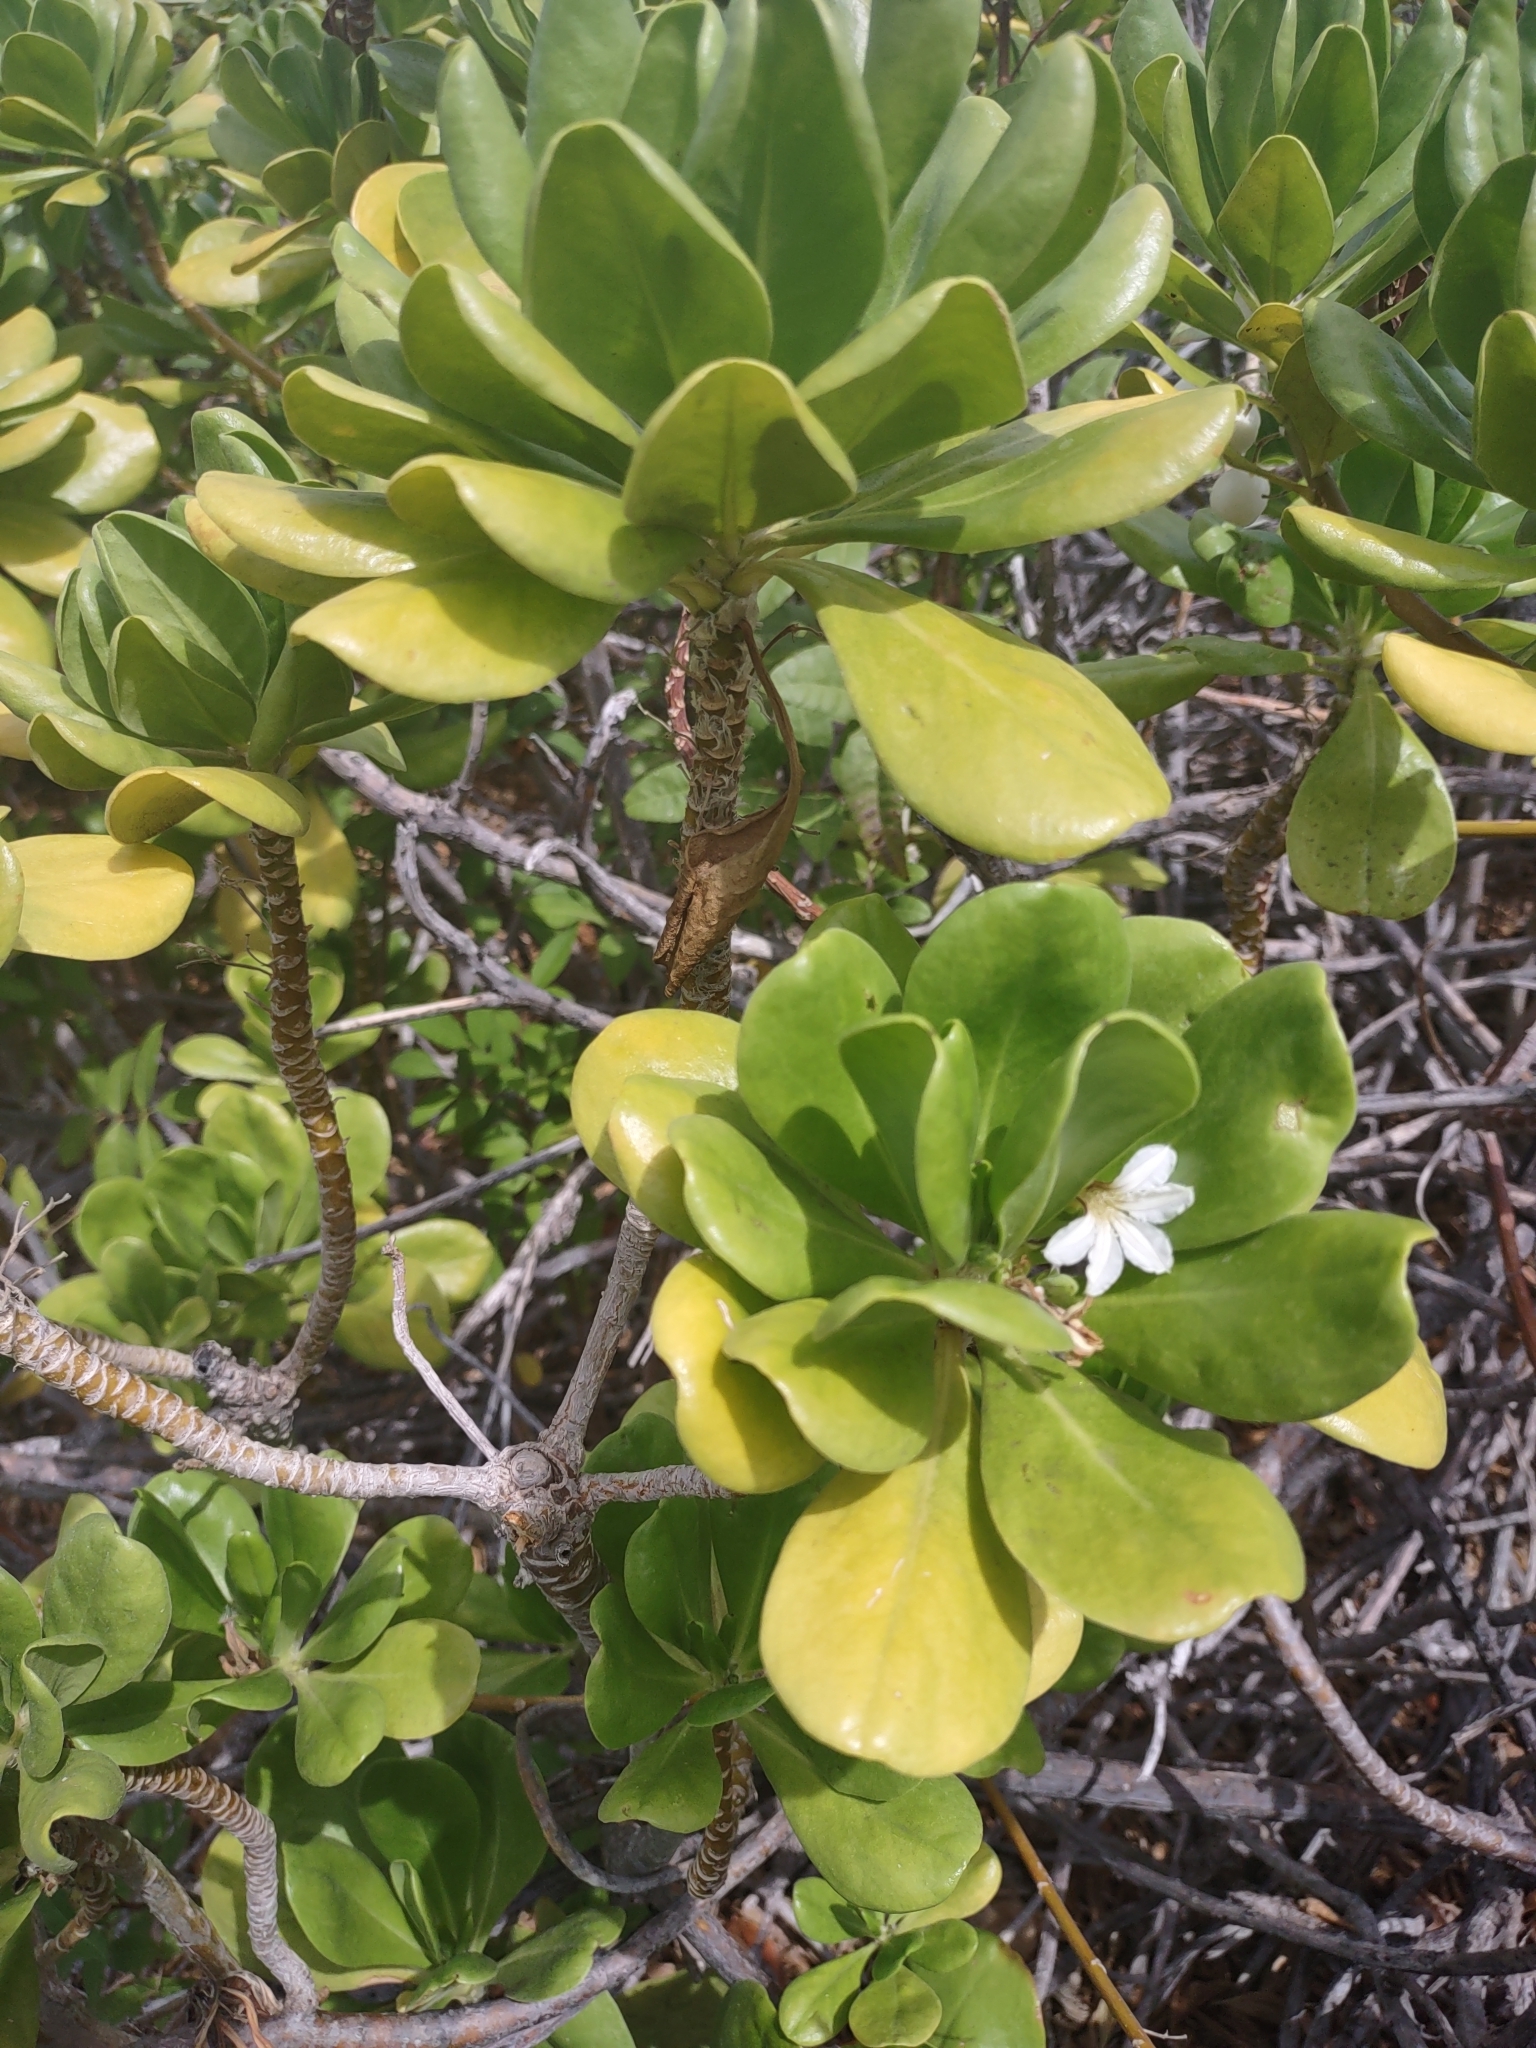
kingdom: Plantae
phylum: Tracheophyta
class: Magnoliopsida
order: Asterales
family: Goodeniaceae
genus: Scaevola
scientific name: Scaevola taccada
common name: Sea lettucetree
